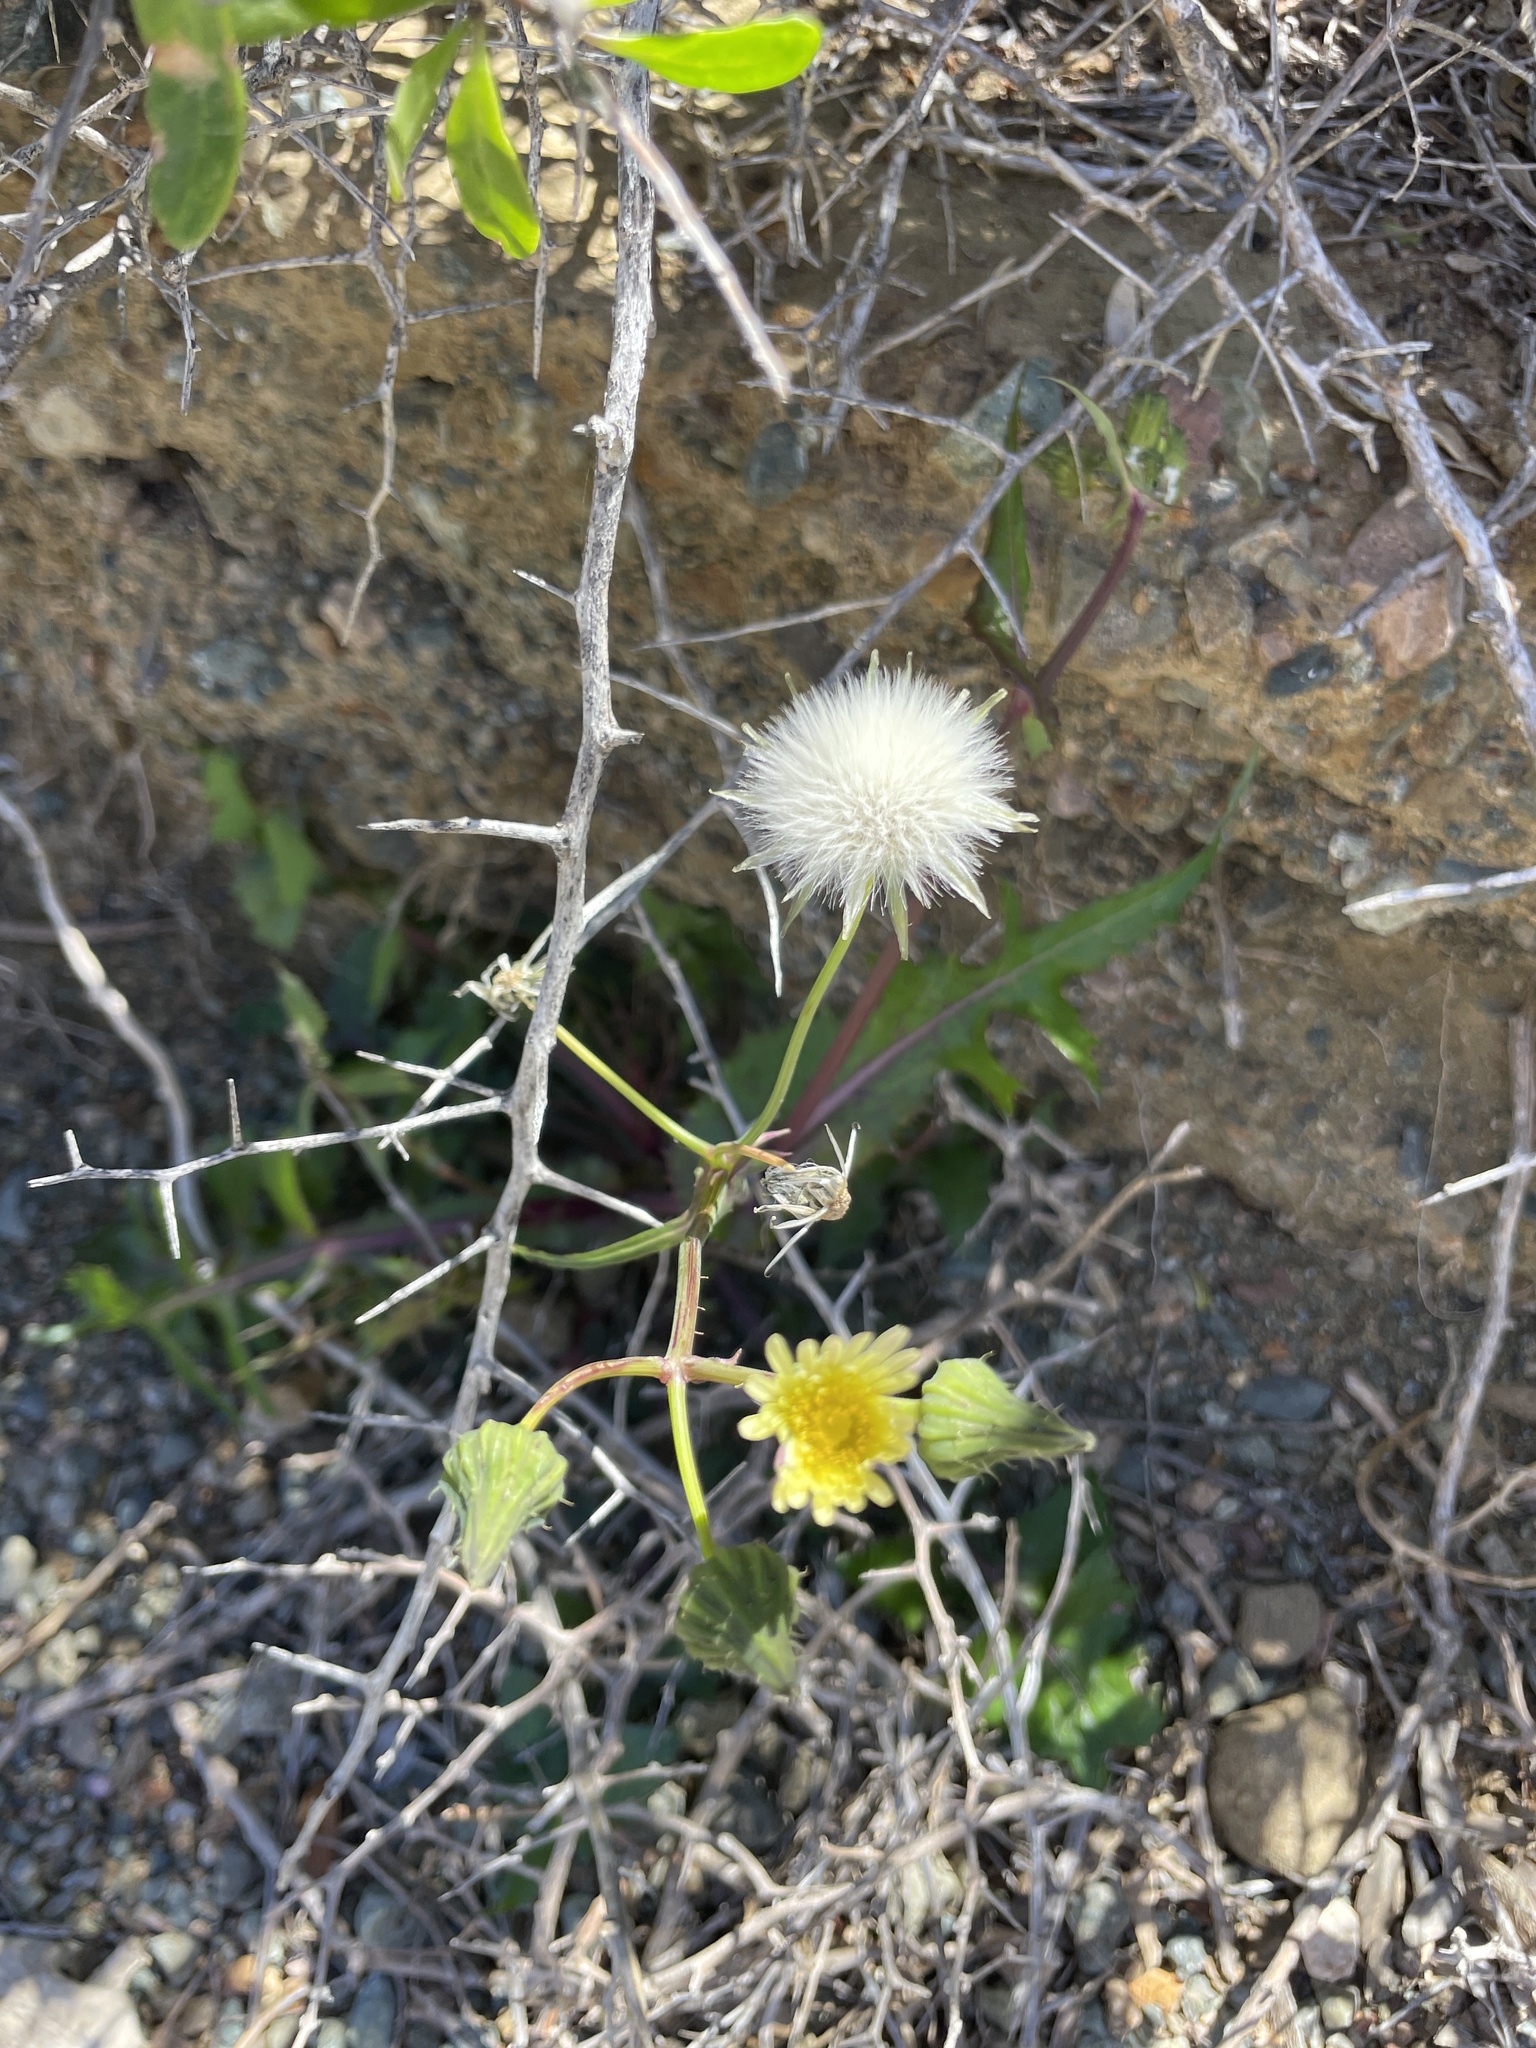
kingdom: Plantae
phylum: Tracheophyta
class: Magnoliopsida
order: Asterales
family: Asteraceae
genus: Sonchus
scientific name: Sonchus oleraceus
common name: Common sowthistle
